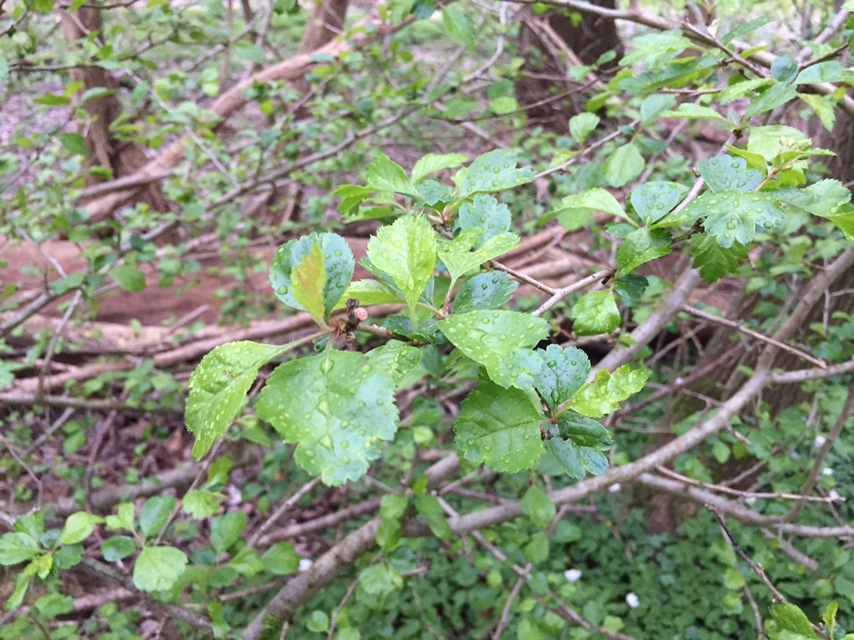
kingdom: Plantae
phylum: Tracheophyta
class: Magnoliopsida
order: Rosales
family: Rosaceae
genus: Crataegus
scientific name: Crataegus laevigata
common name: Midland hawthorn
